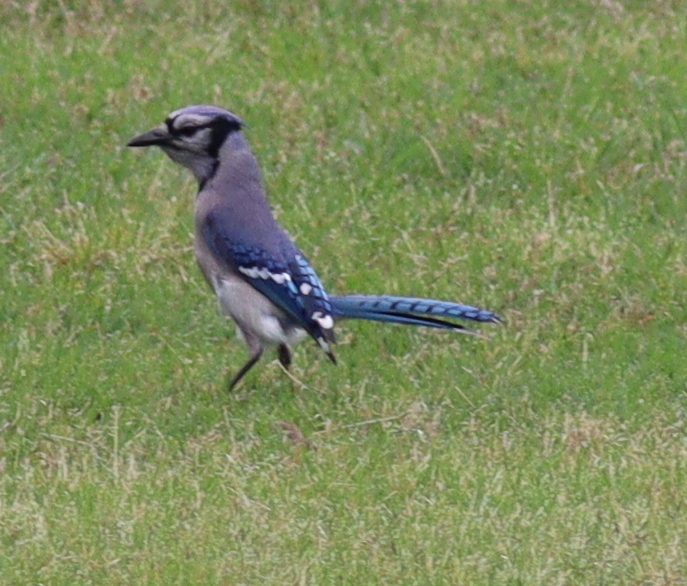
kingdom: Animalia
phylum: Chordata
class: Aves
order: Passeriformes
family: Corvidae
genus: Cyanocitta
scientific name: Cyanocitta cristata
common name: Blue jay
